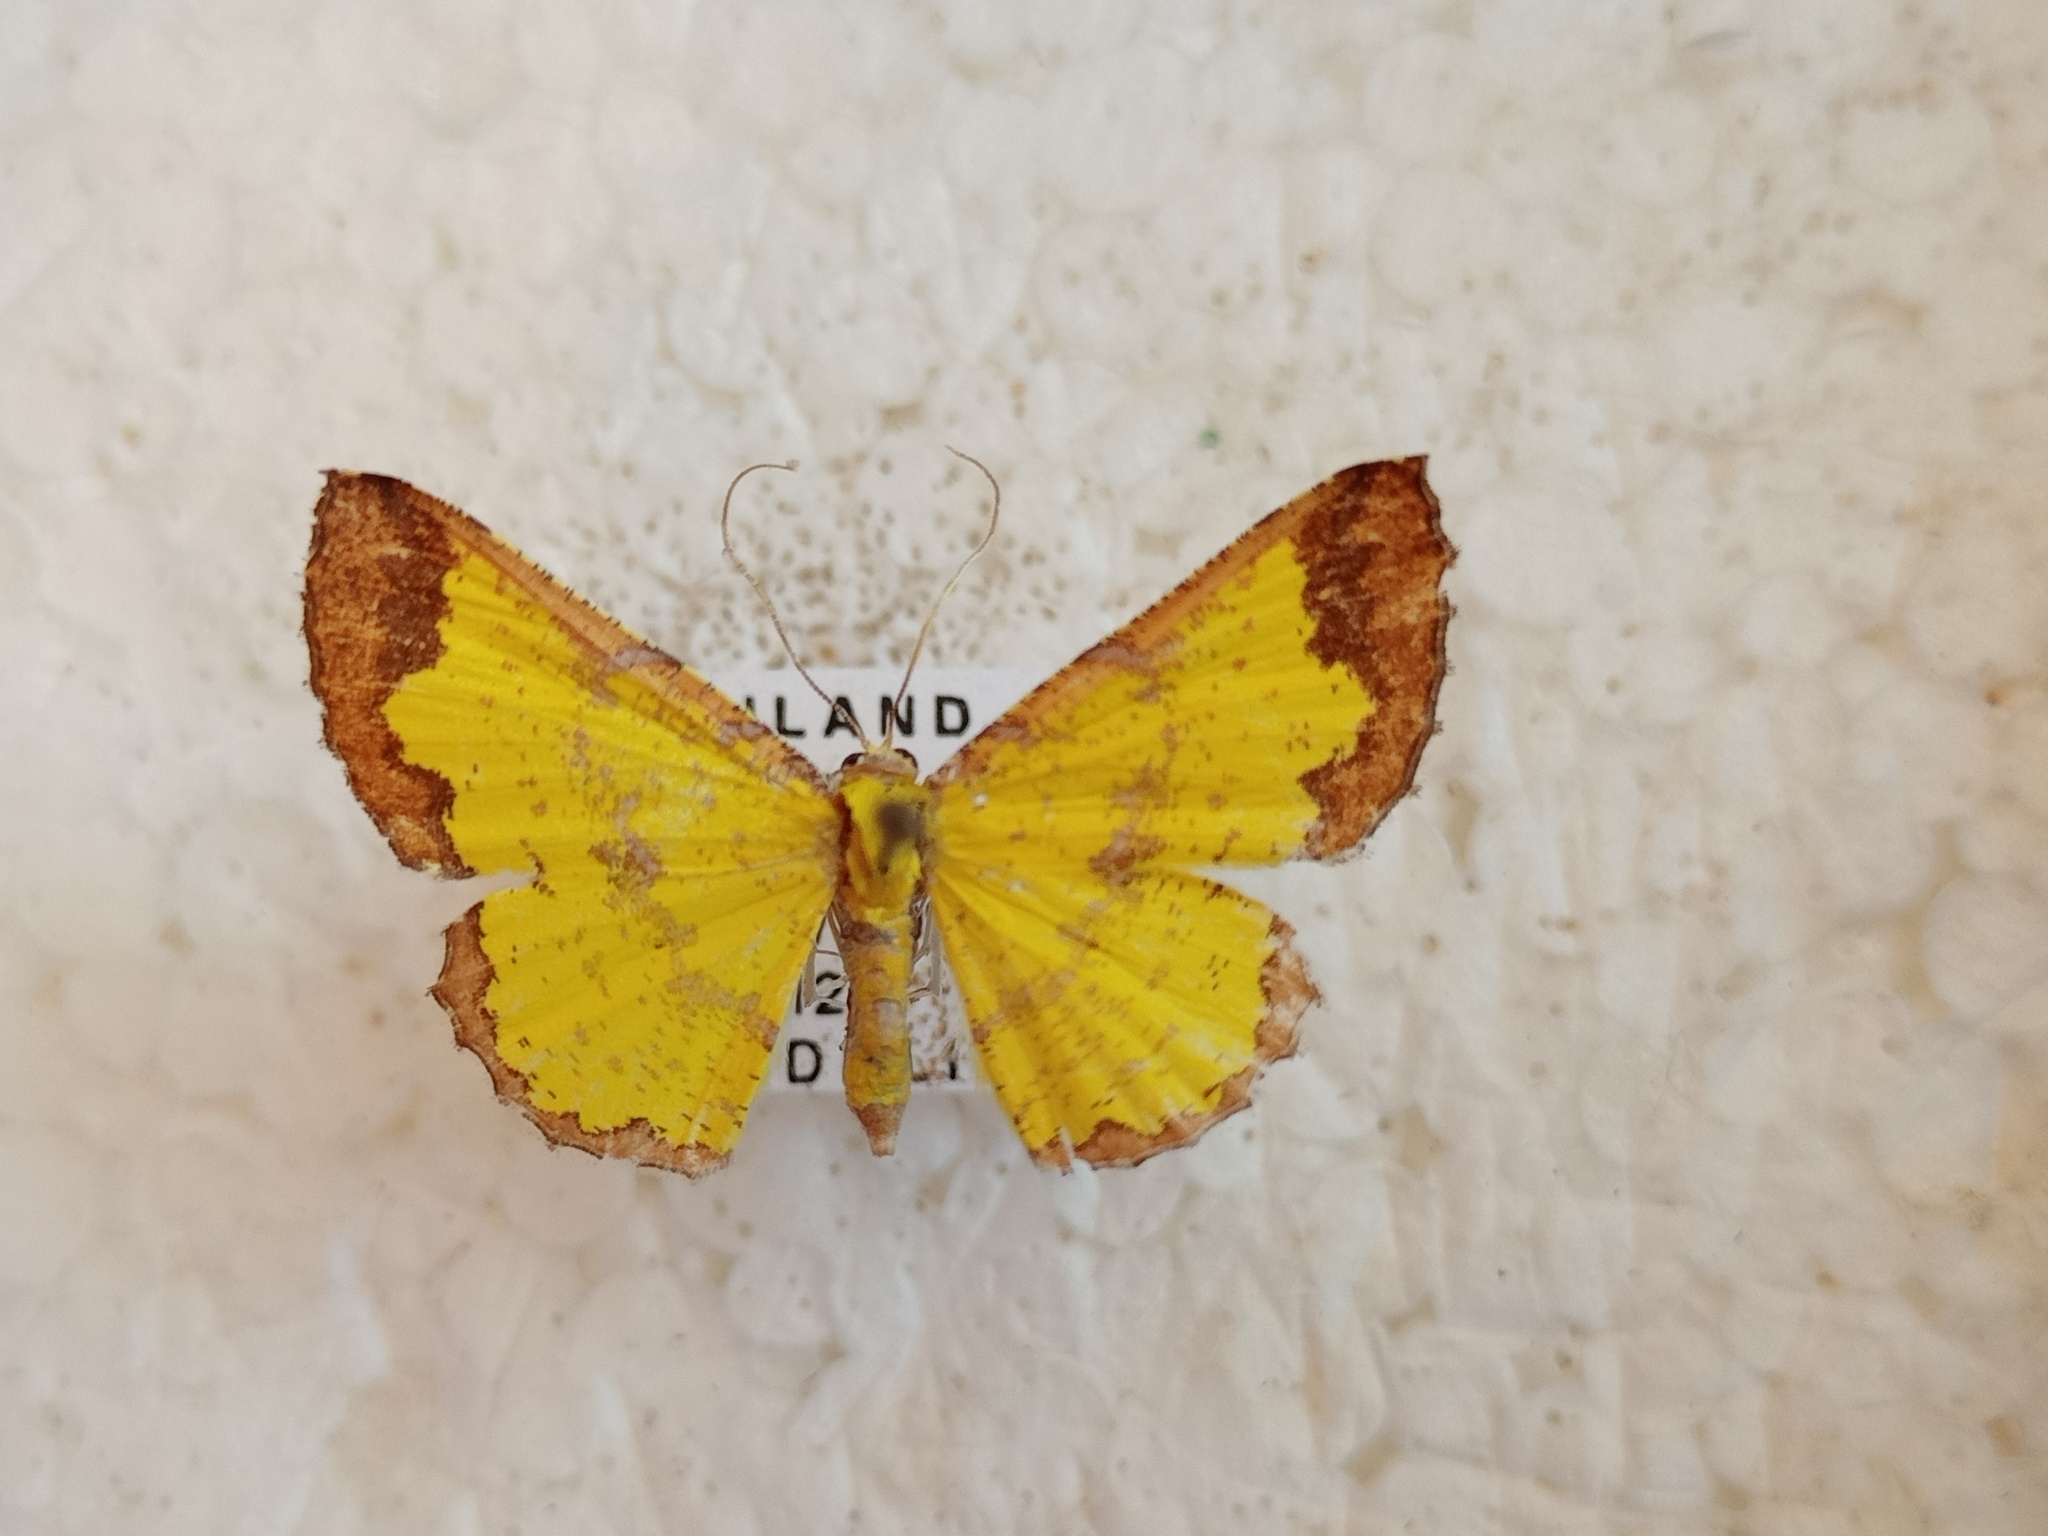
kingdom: Animalia
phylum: Arthropoda
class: Insecta
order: Lepidoptera
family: Geometridae
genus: Corymica
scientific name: Corymica latimarginata
